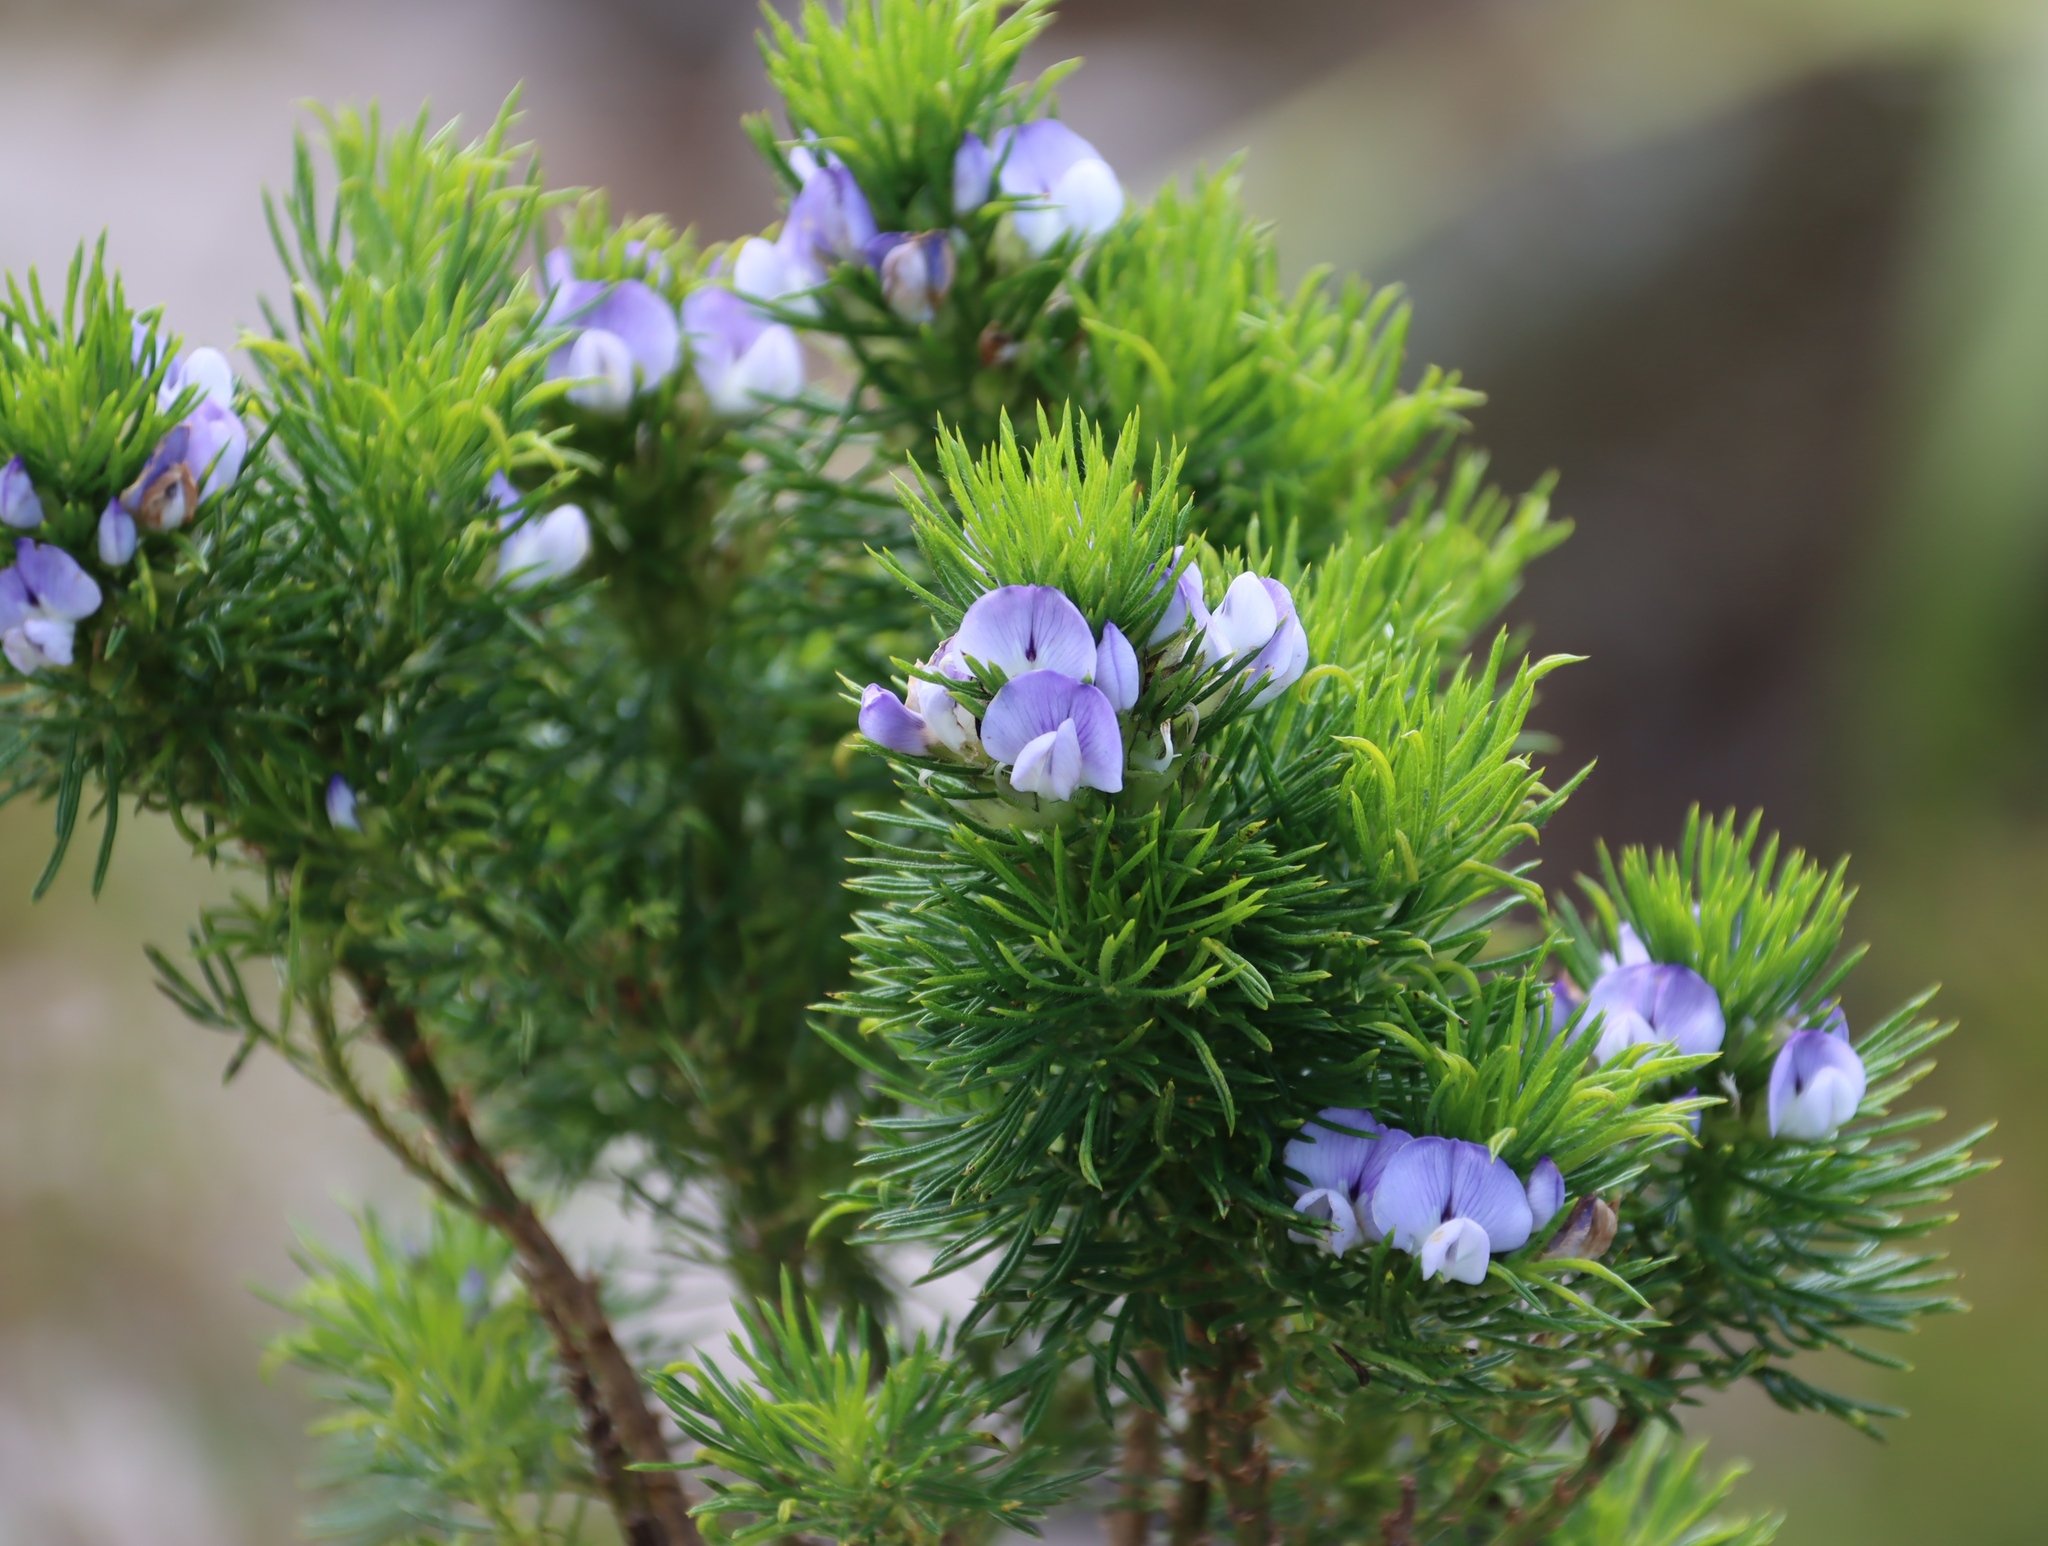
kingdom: Plantae
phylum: Tracheophyta
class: Magnoliopsida
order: Fabales
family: Fabaceae
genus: Psoralea
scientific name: Psoralea pinnata
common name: African scurfpea
